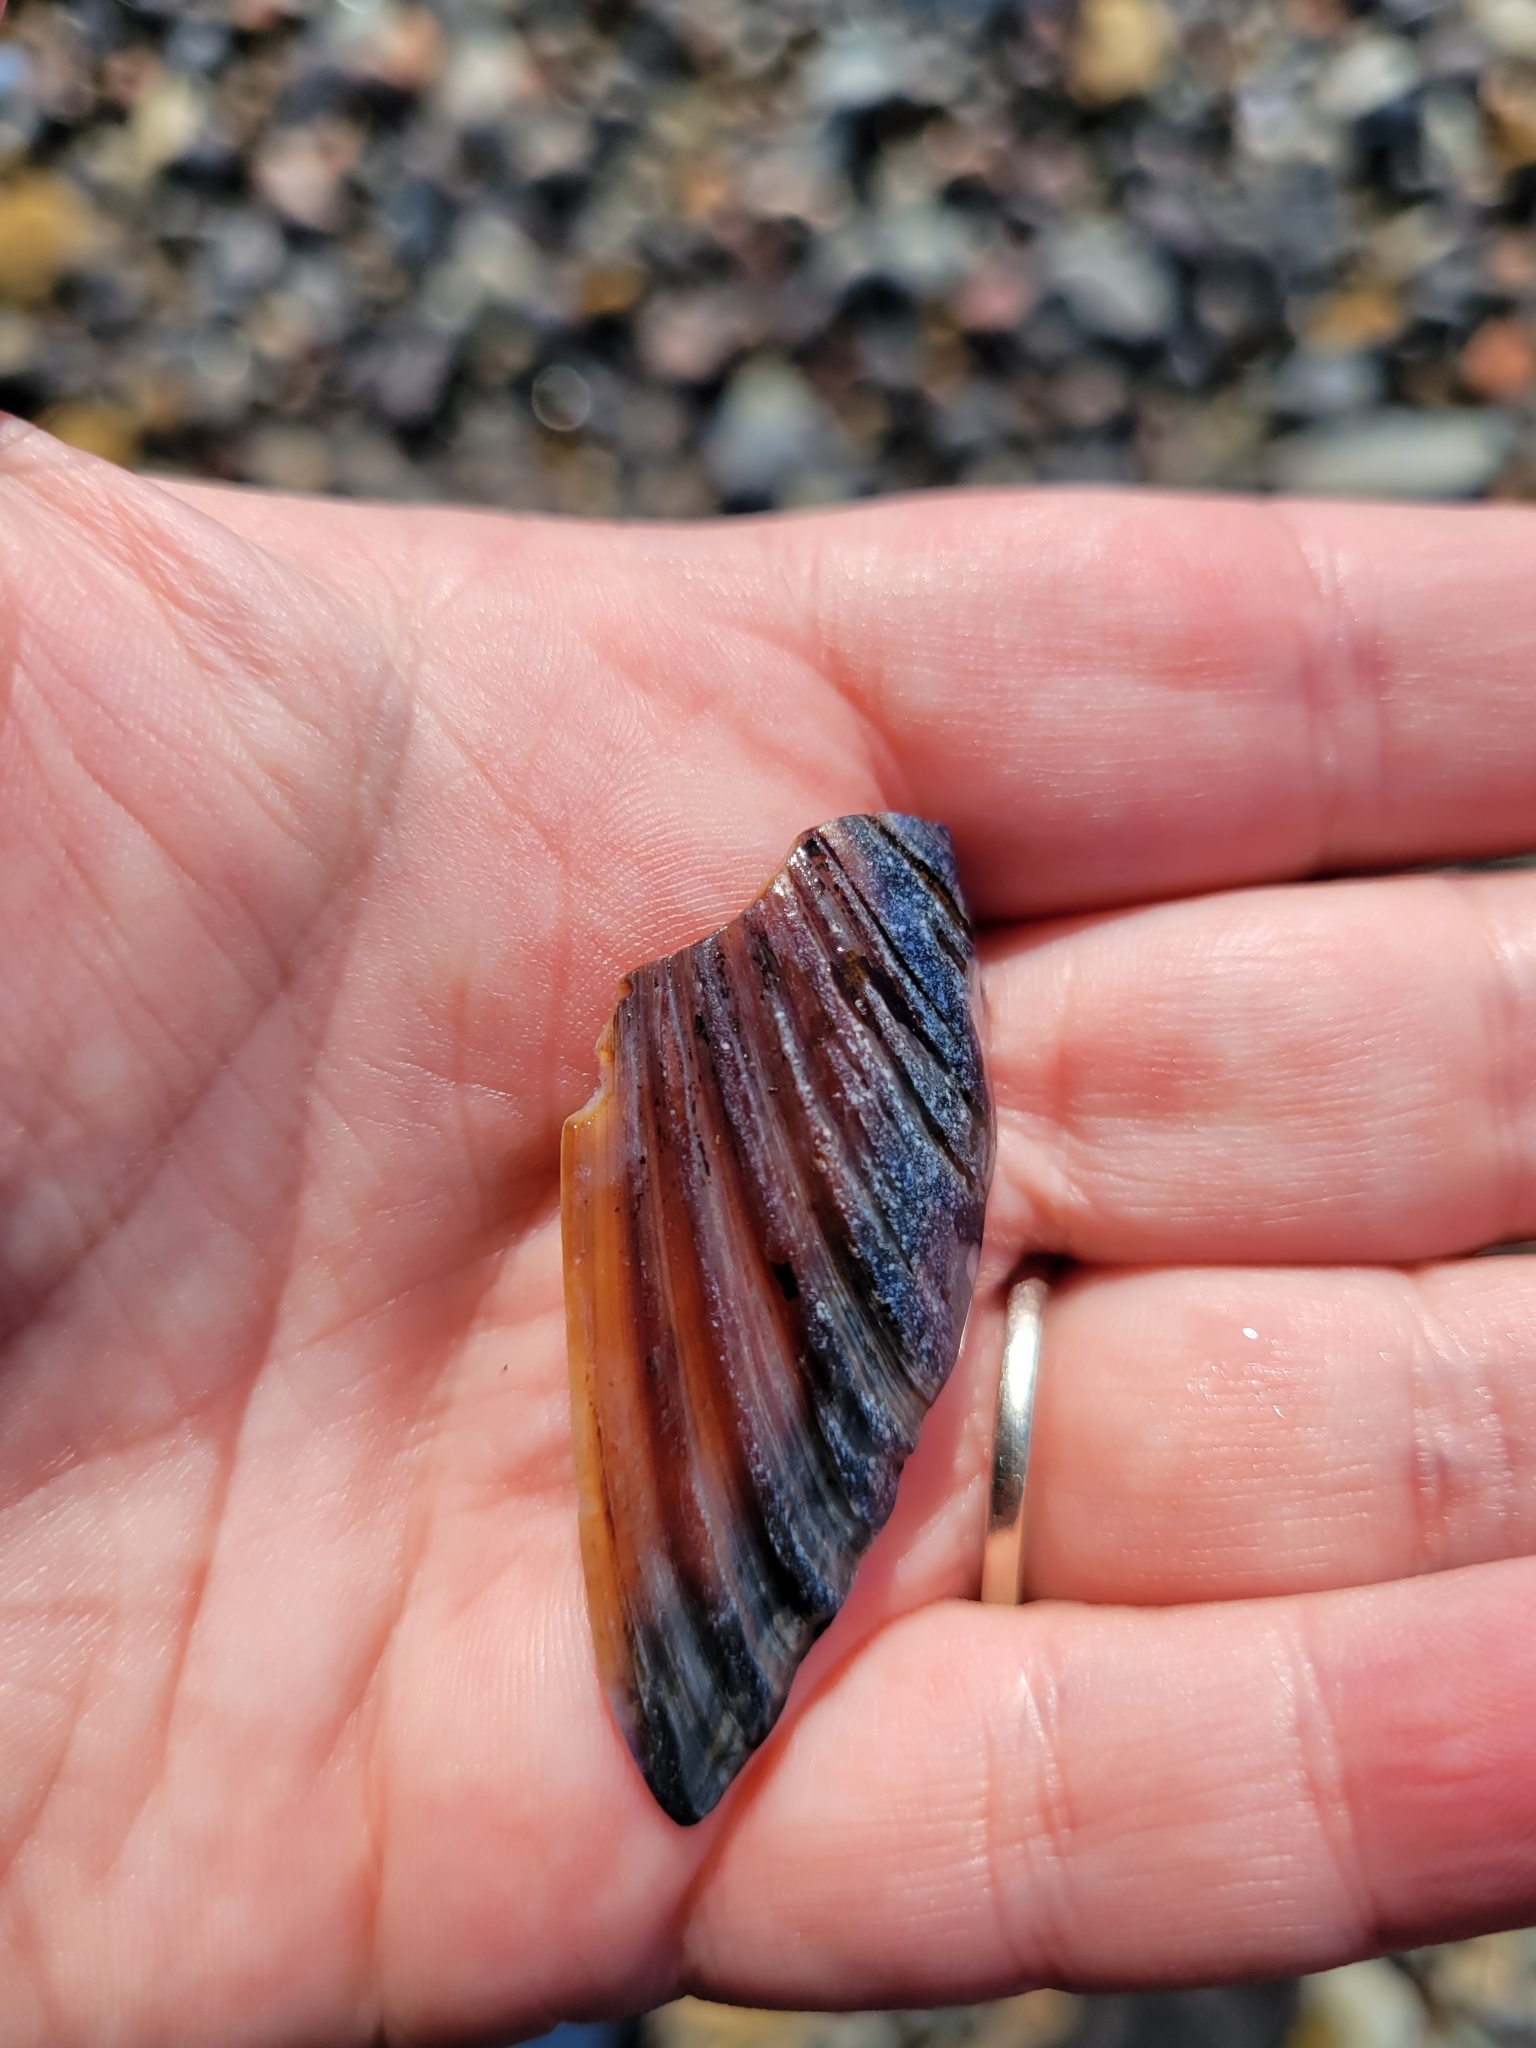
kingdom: Animalia
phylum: Mollusca
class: Bivalvia
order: Mytilida
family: Mytilidae
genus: Mytilus
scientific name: Mytilus californianus
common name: California mussel
